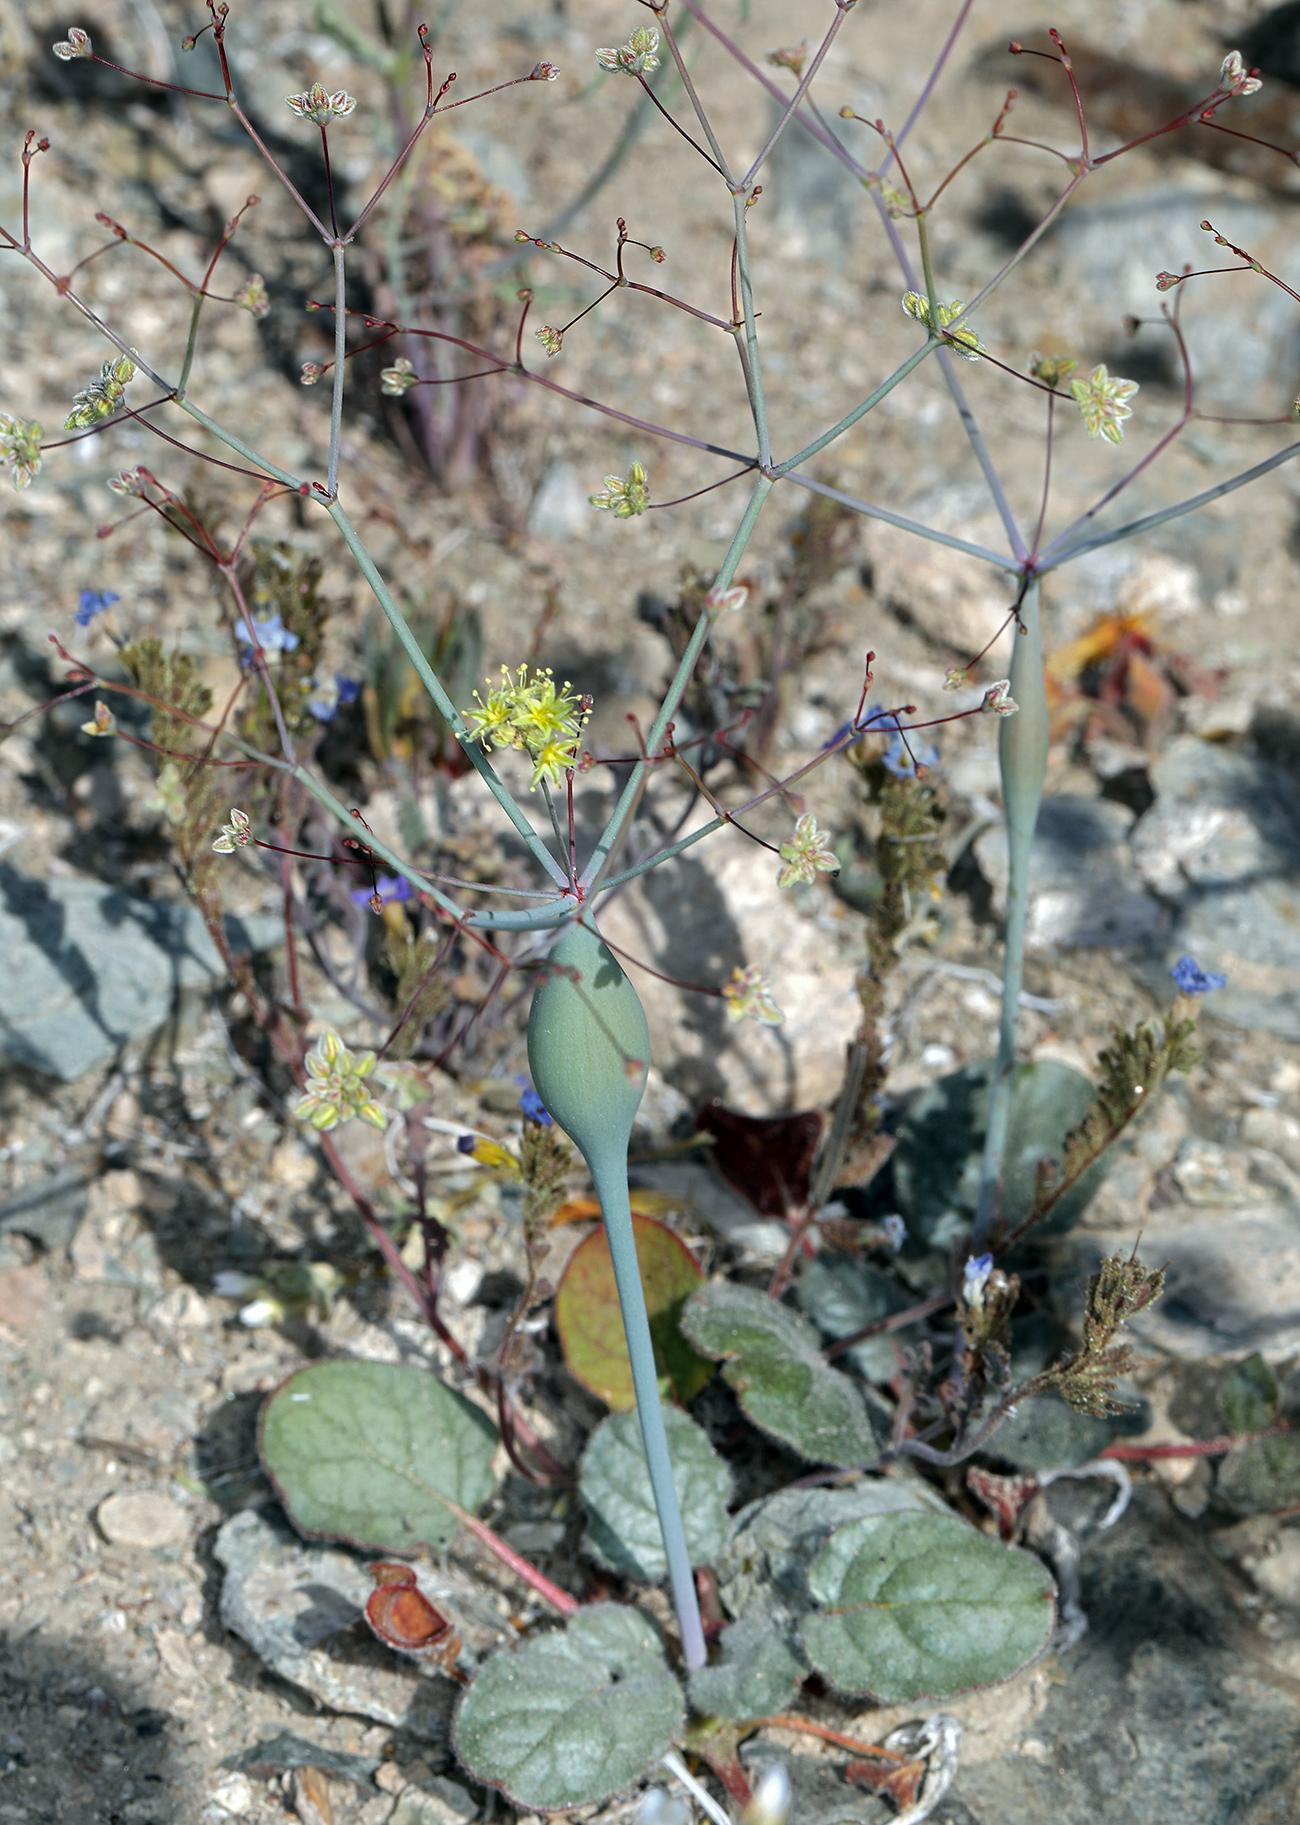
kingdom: Plantae
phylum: Tracheophyta
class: Magnoliopsida
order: Caryophyllales
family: Polygonaceae
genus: Eriogonum
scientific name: Eriogonum inflatum
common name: Desert trumpet
